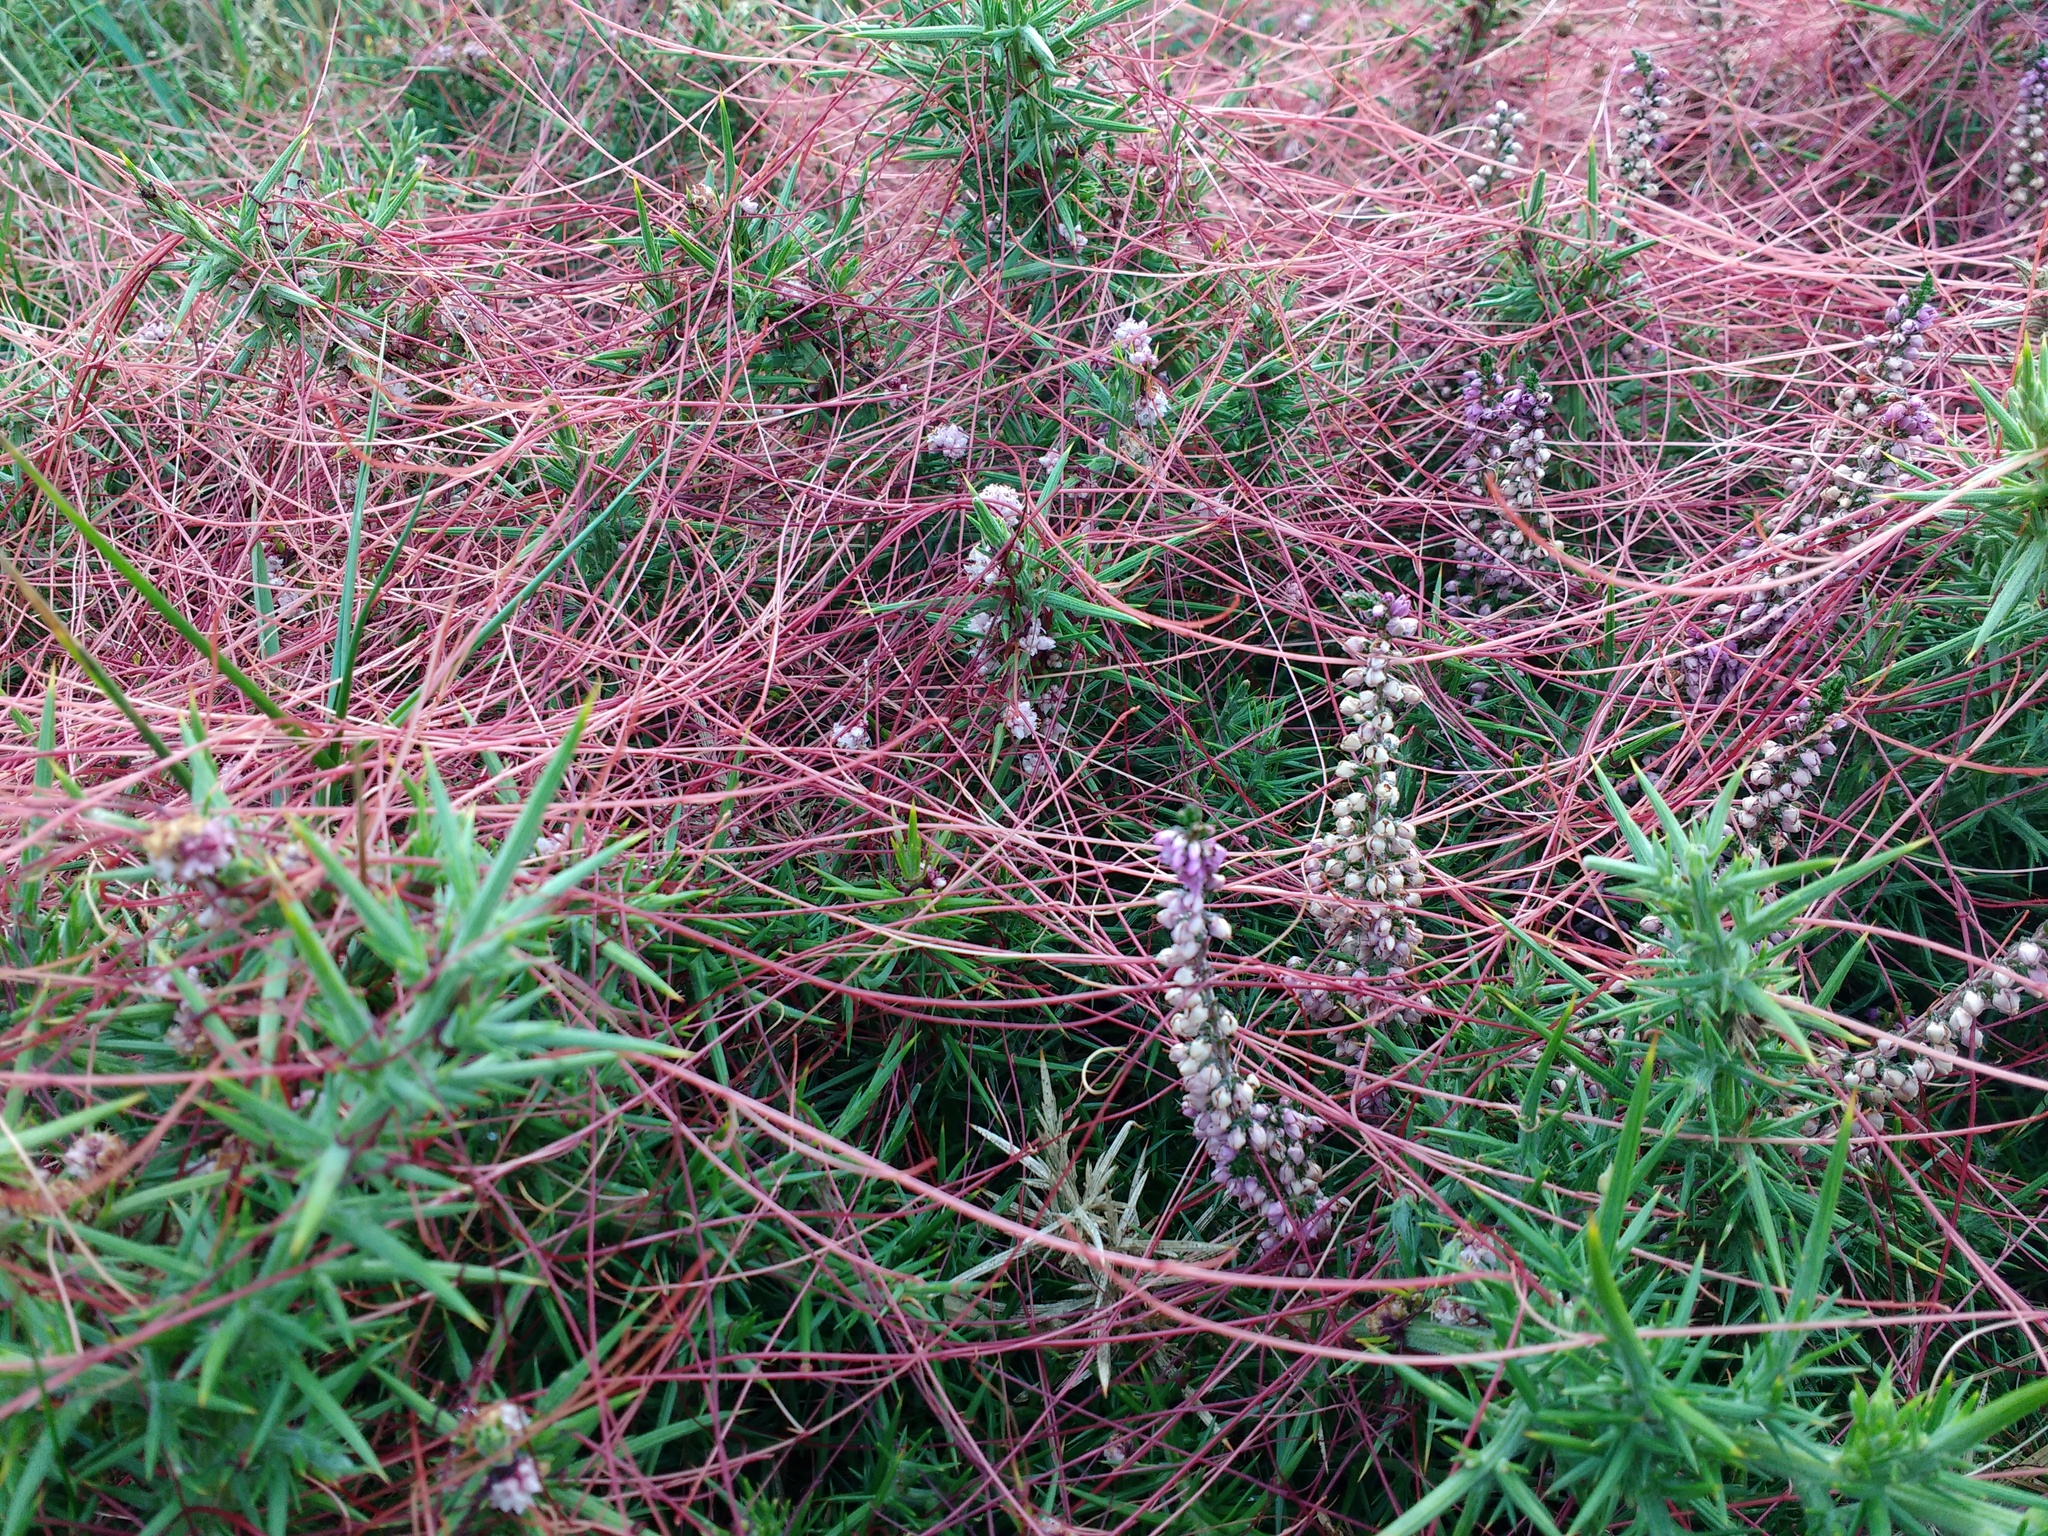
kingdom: Plantae
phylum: Tracheophyta
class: Magnoliopsida
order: Solanales
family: Convolvulaceae
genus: Cuscuta
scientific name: Cuscuta epithymum
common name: Clover dodder
